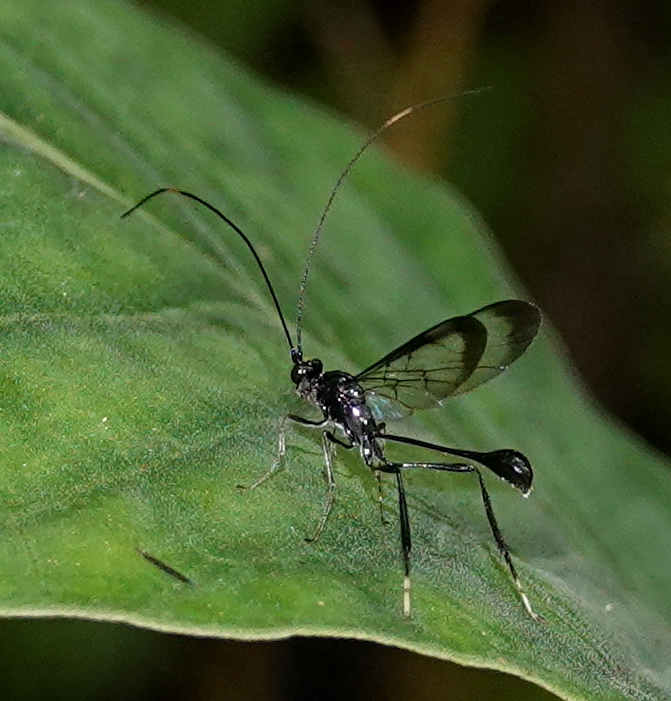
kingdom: Animalia
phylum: Arthropoda
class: Insecta
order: Hymenoptera
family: Pelecinidae
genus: Pelecinus
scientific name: Pelecinus polyturator
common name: American pelecinid wasp
